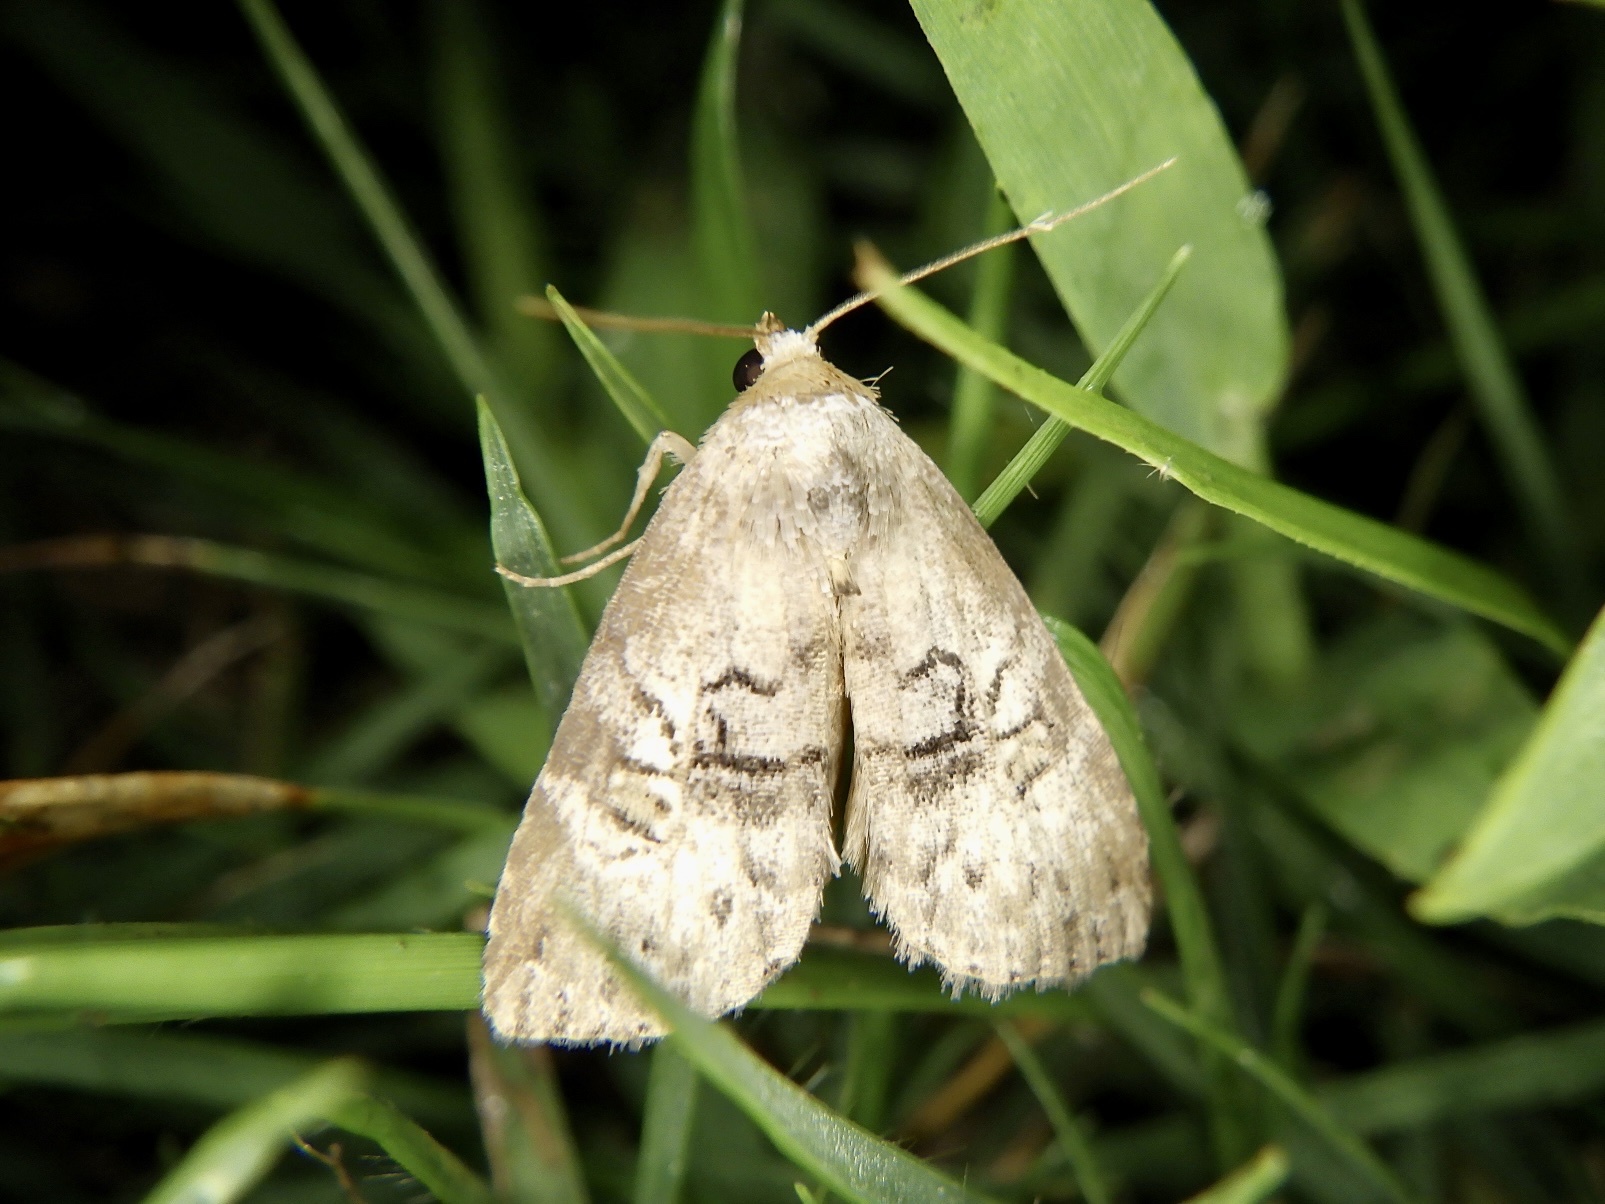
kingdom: Animalia
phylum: Arthropoda
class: Insecta
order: Lepidoptera
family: Erebidae
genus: Chorsia
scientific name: Chorsia mollicula
